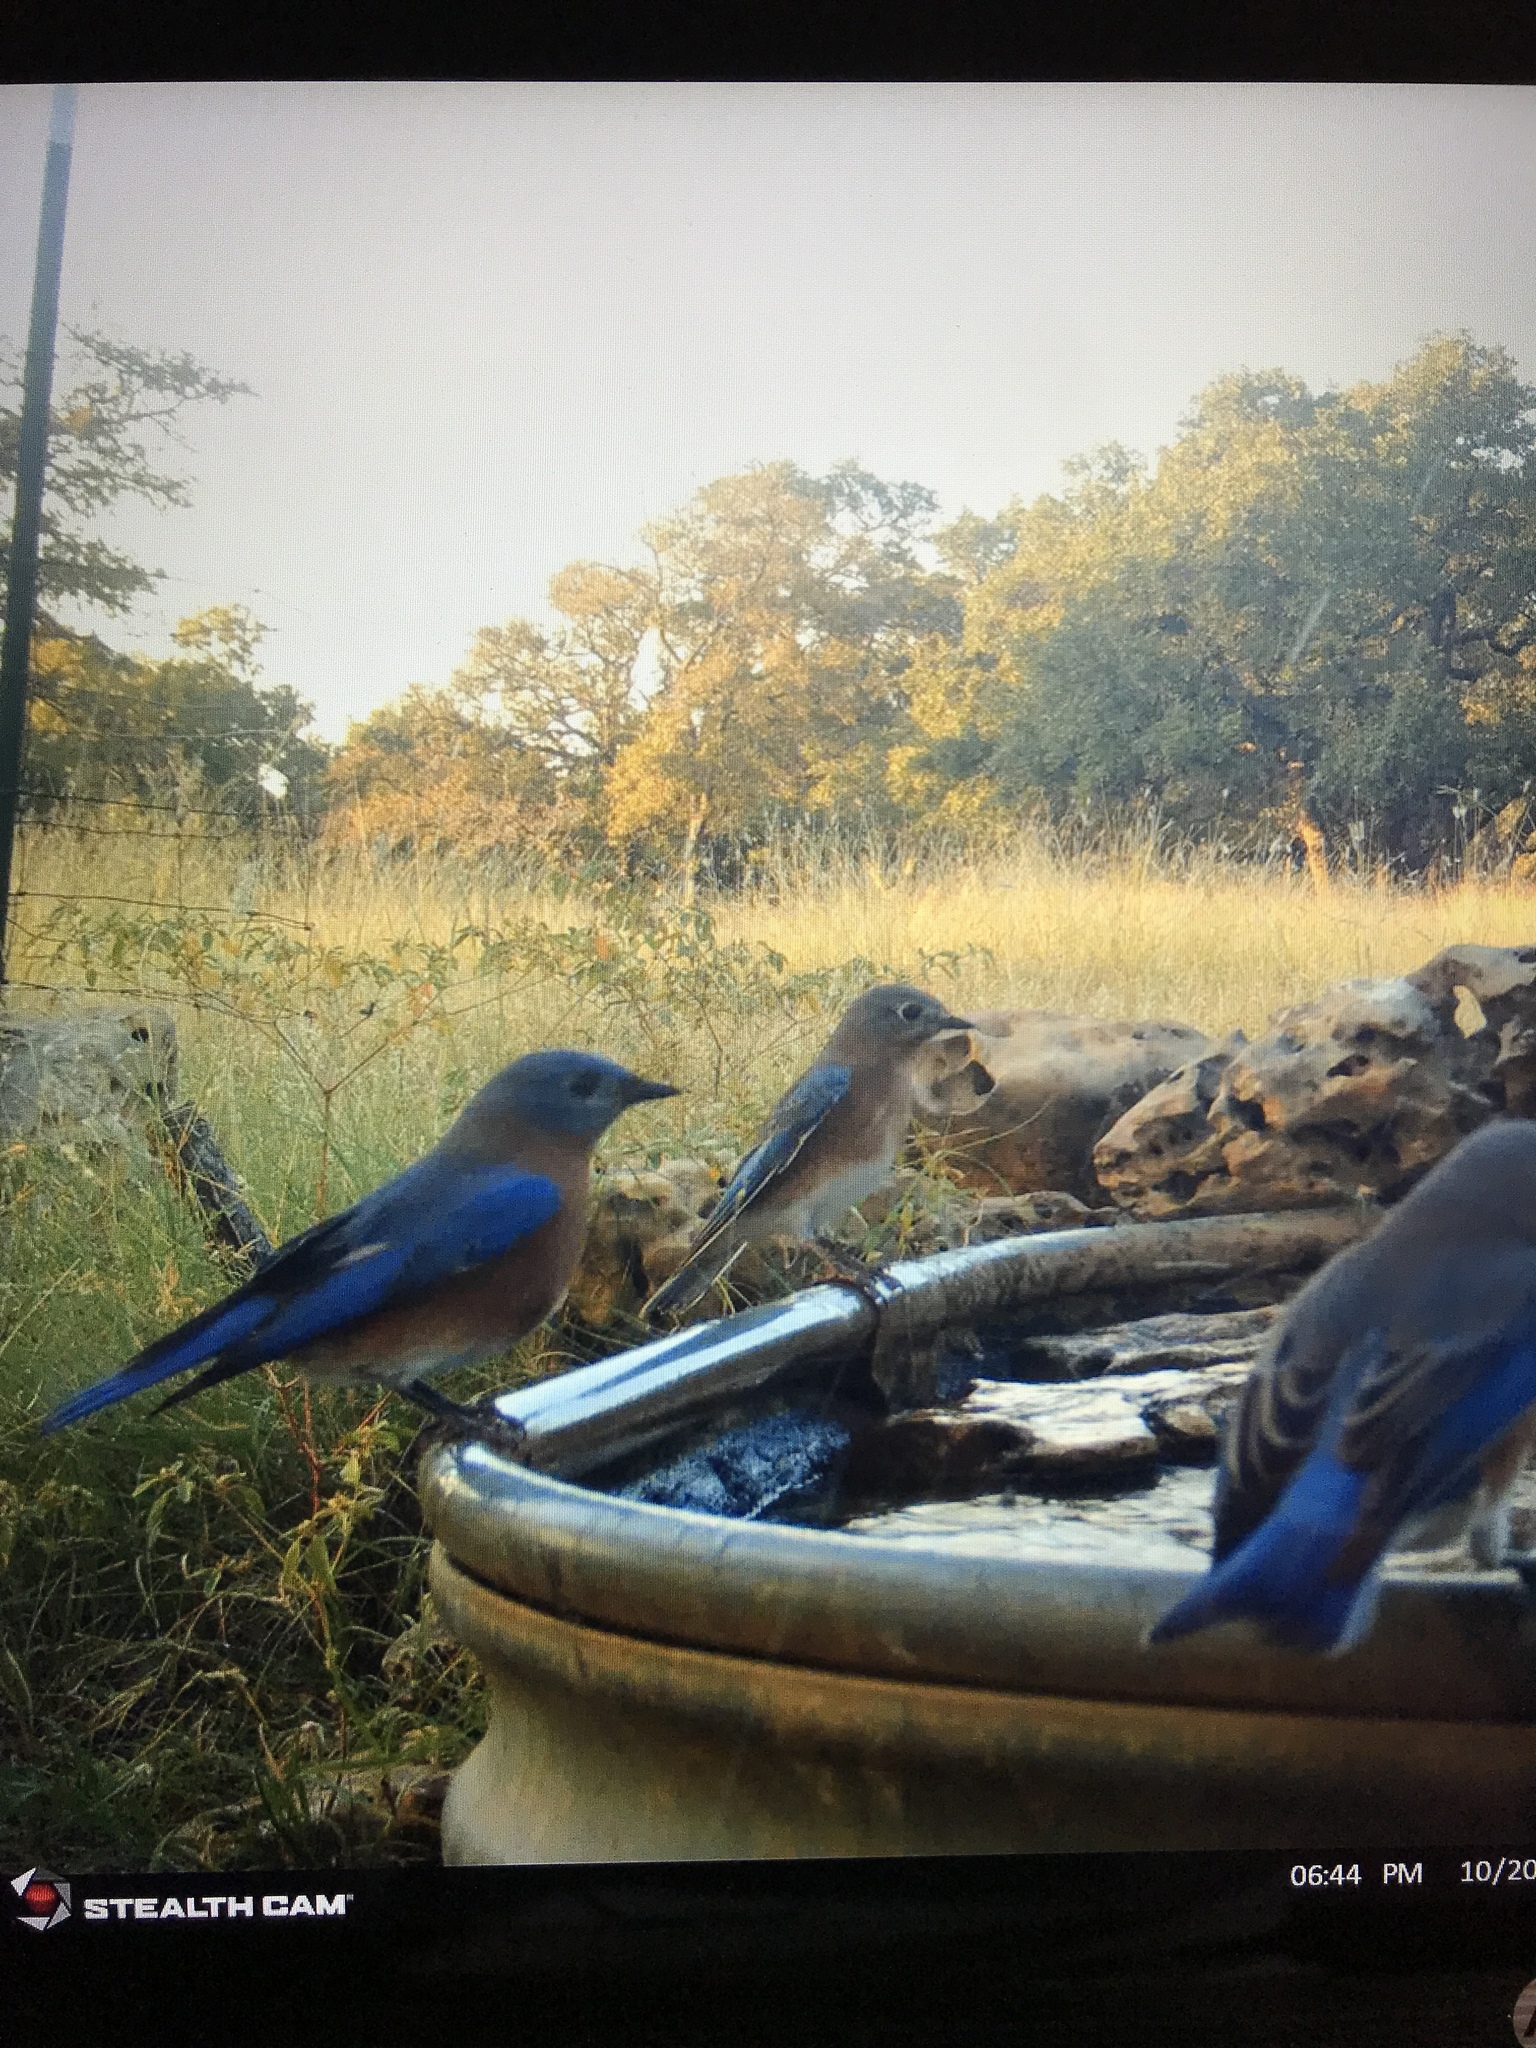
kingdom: Animalia
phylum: Chordata
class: Aves
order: Passeriformes
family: Turdidae
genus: Sialia
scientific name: Sialia sialis
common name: Eastern bluebird
